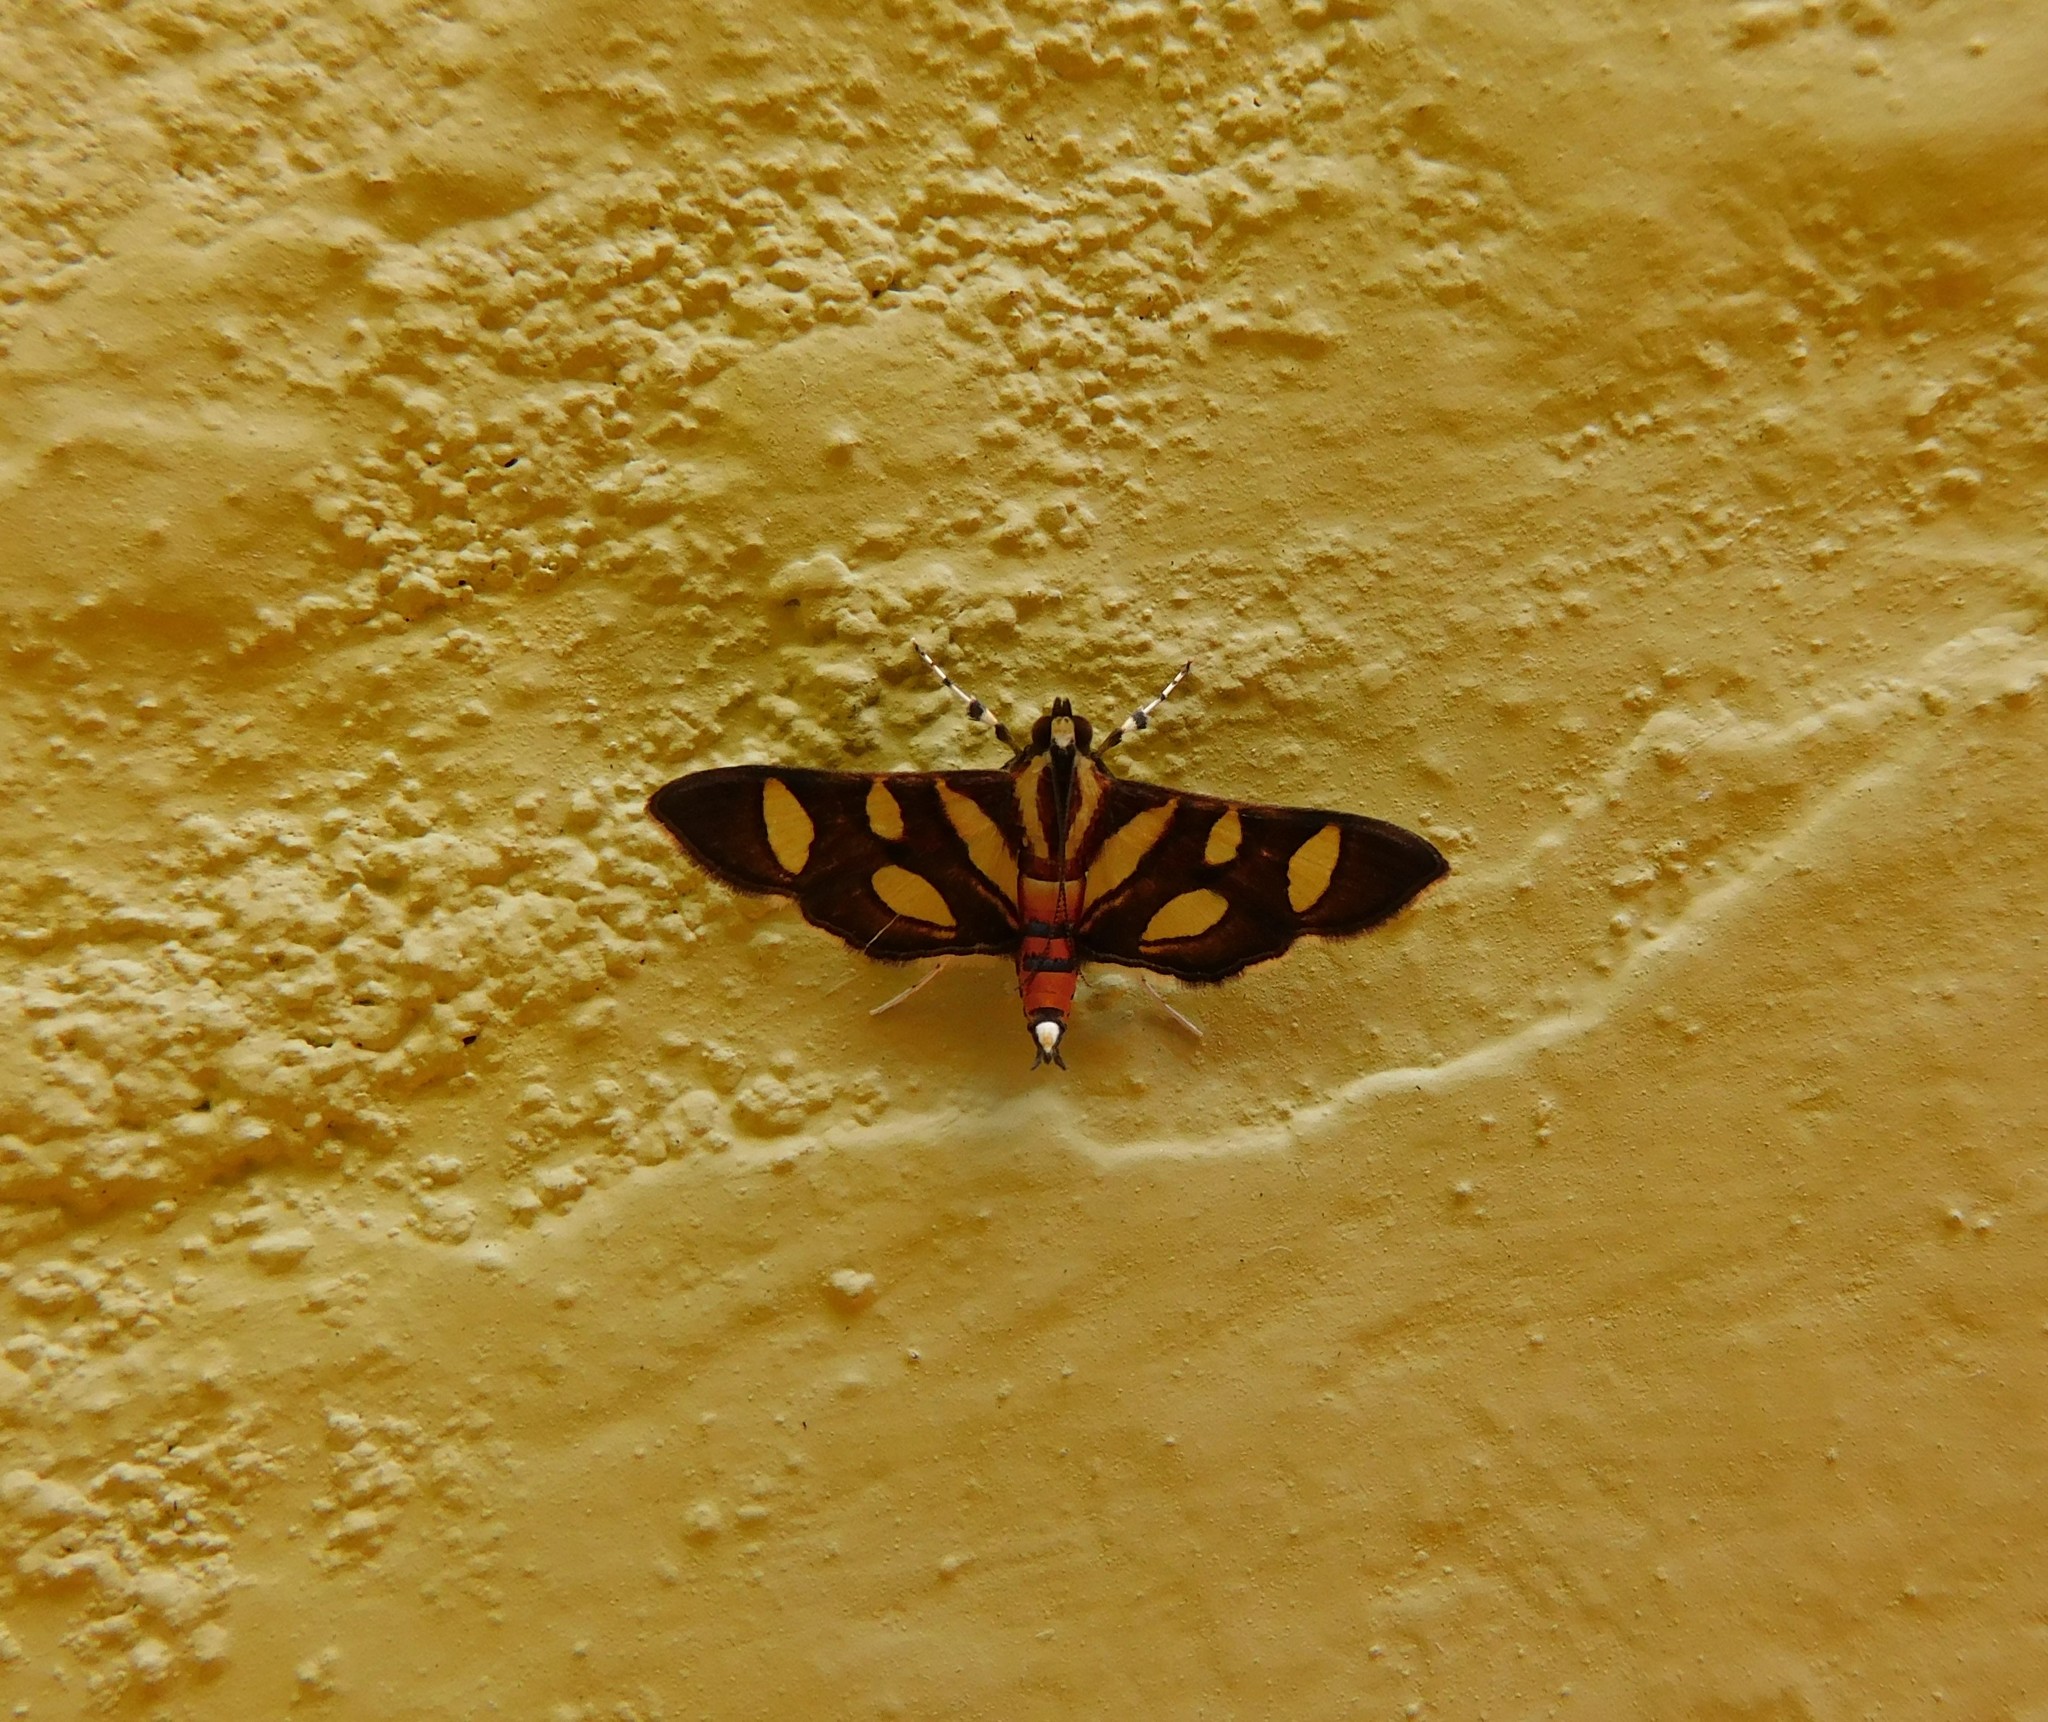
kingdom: Animalia
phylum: Arthropoda
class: Insecta
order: Lepidoptera
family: Crambidae
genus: Syngamia
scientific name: Syngamia florella
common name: Orange-spotted flower moth
